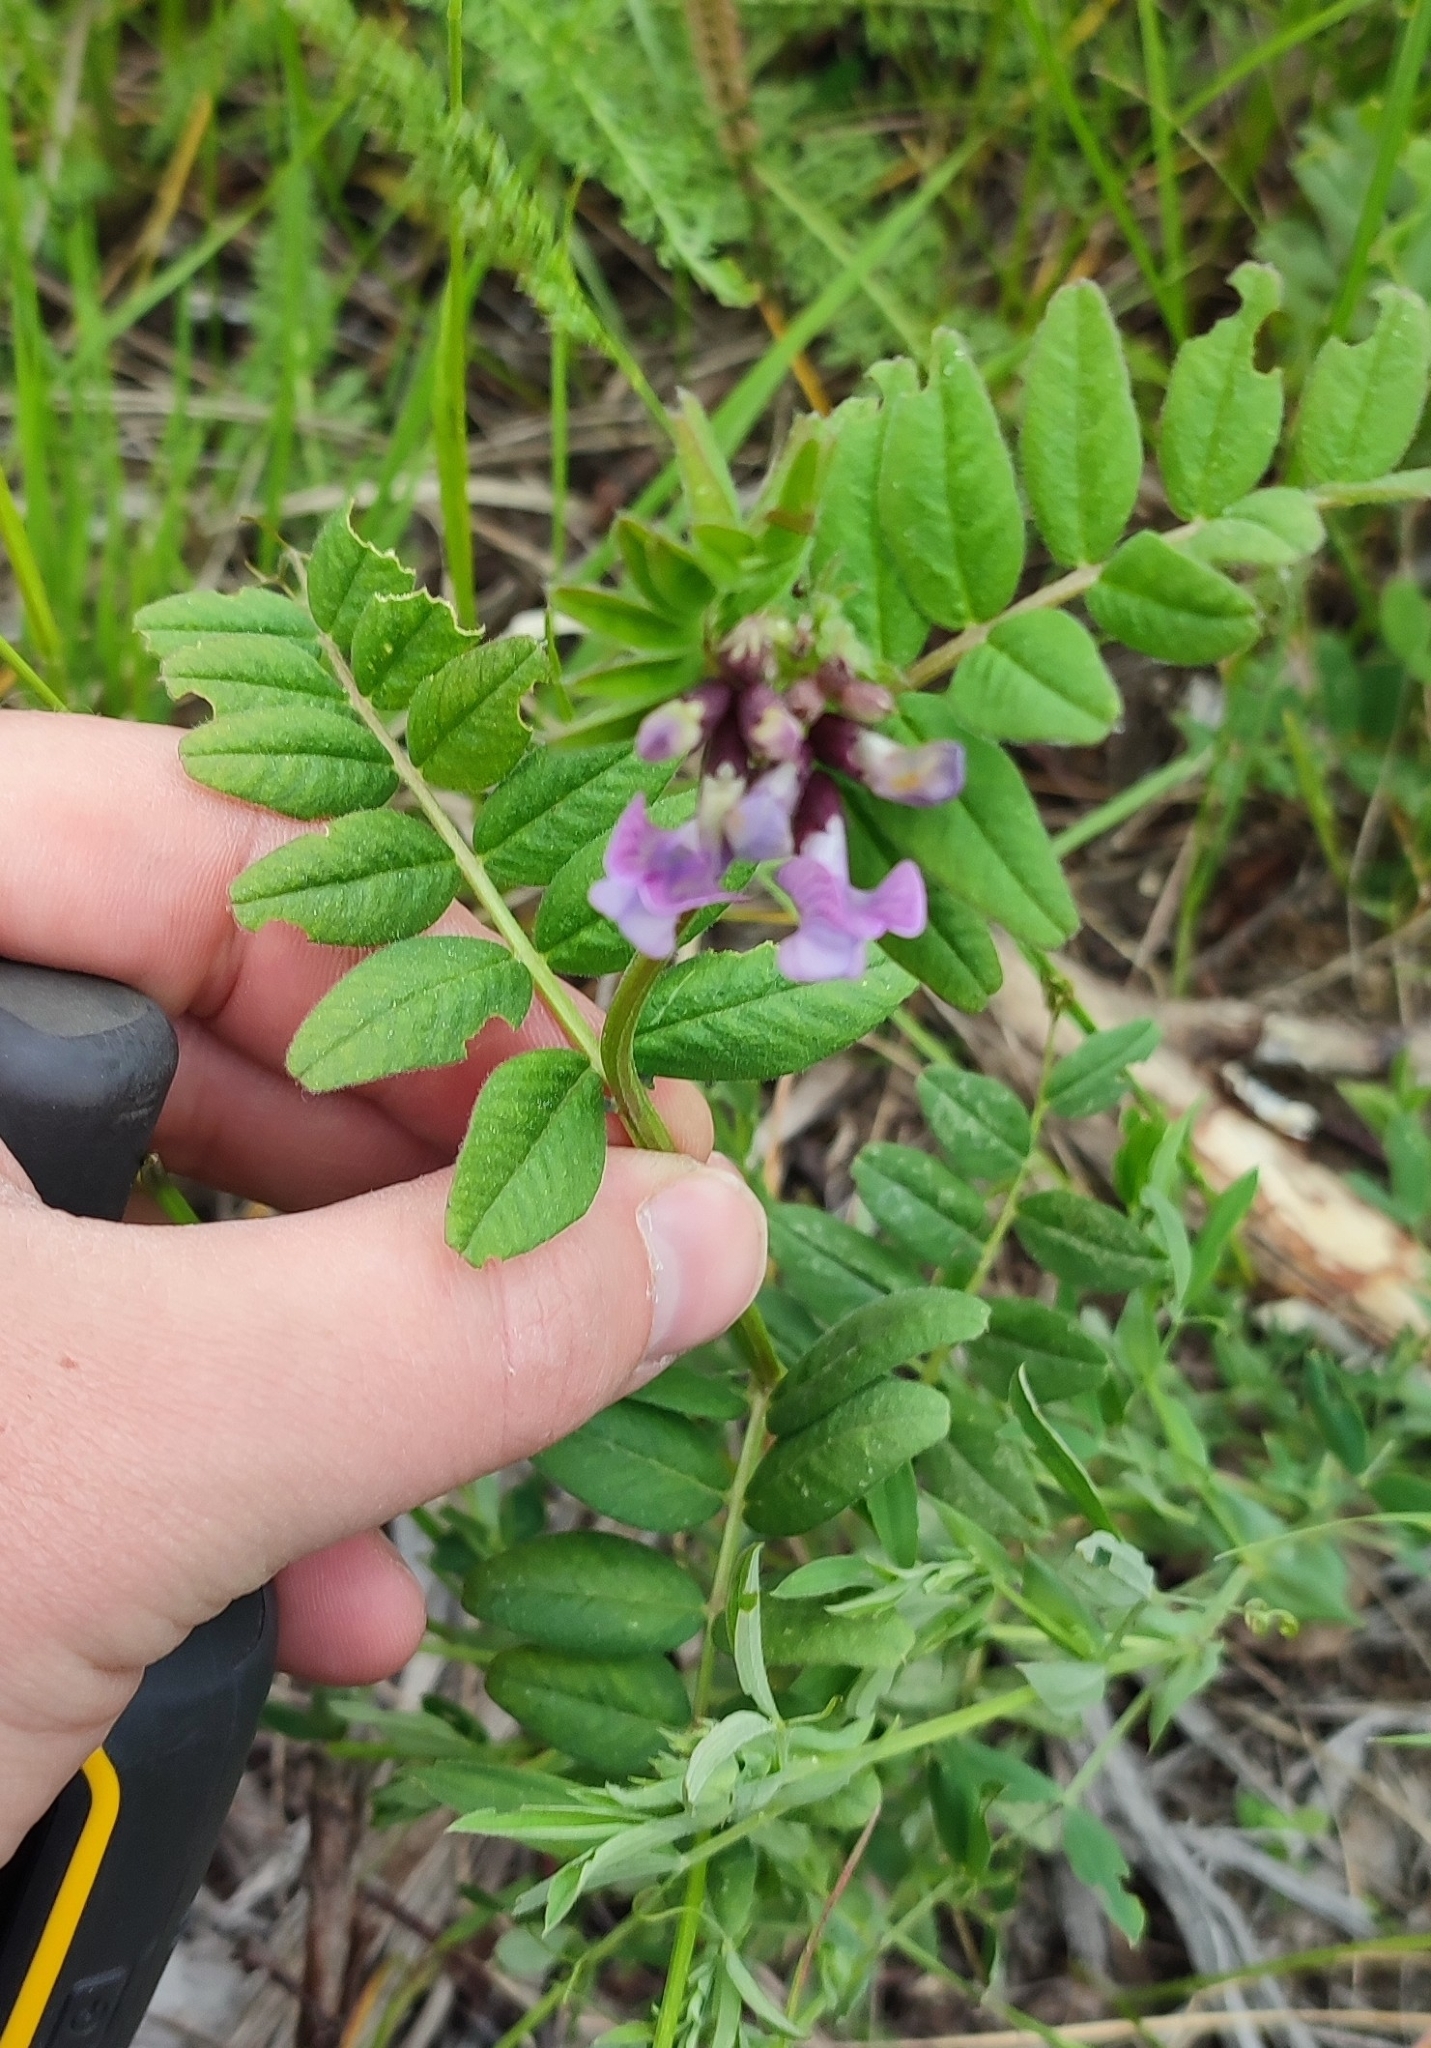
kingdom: Plantae
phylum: Tracheophyta
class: Magnoliopsida
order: Fabales
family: Fabaceae
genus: Vicia
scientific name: Vicia sepium
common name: Bush vetch
